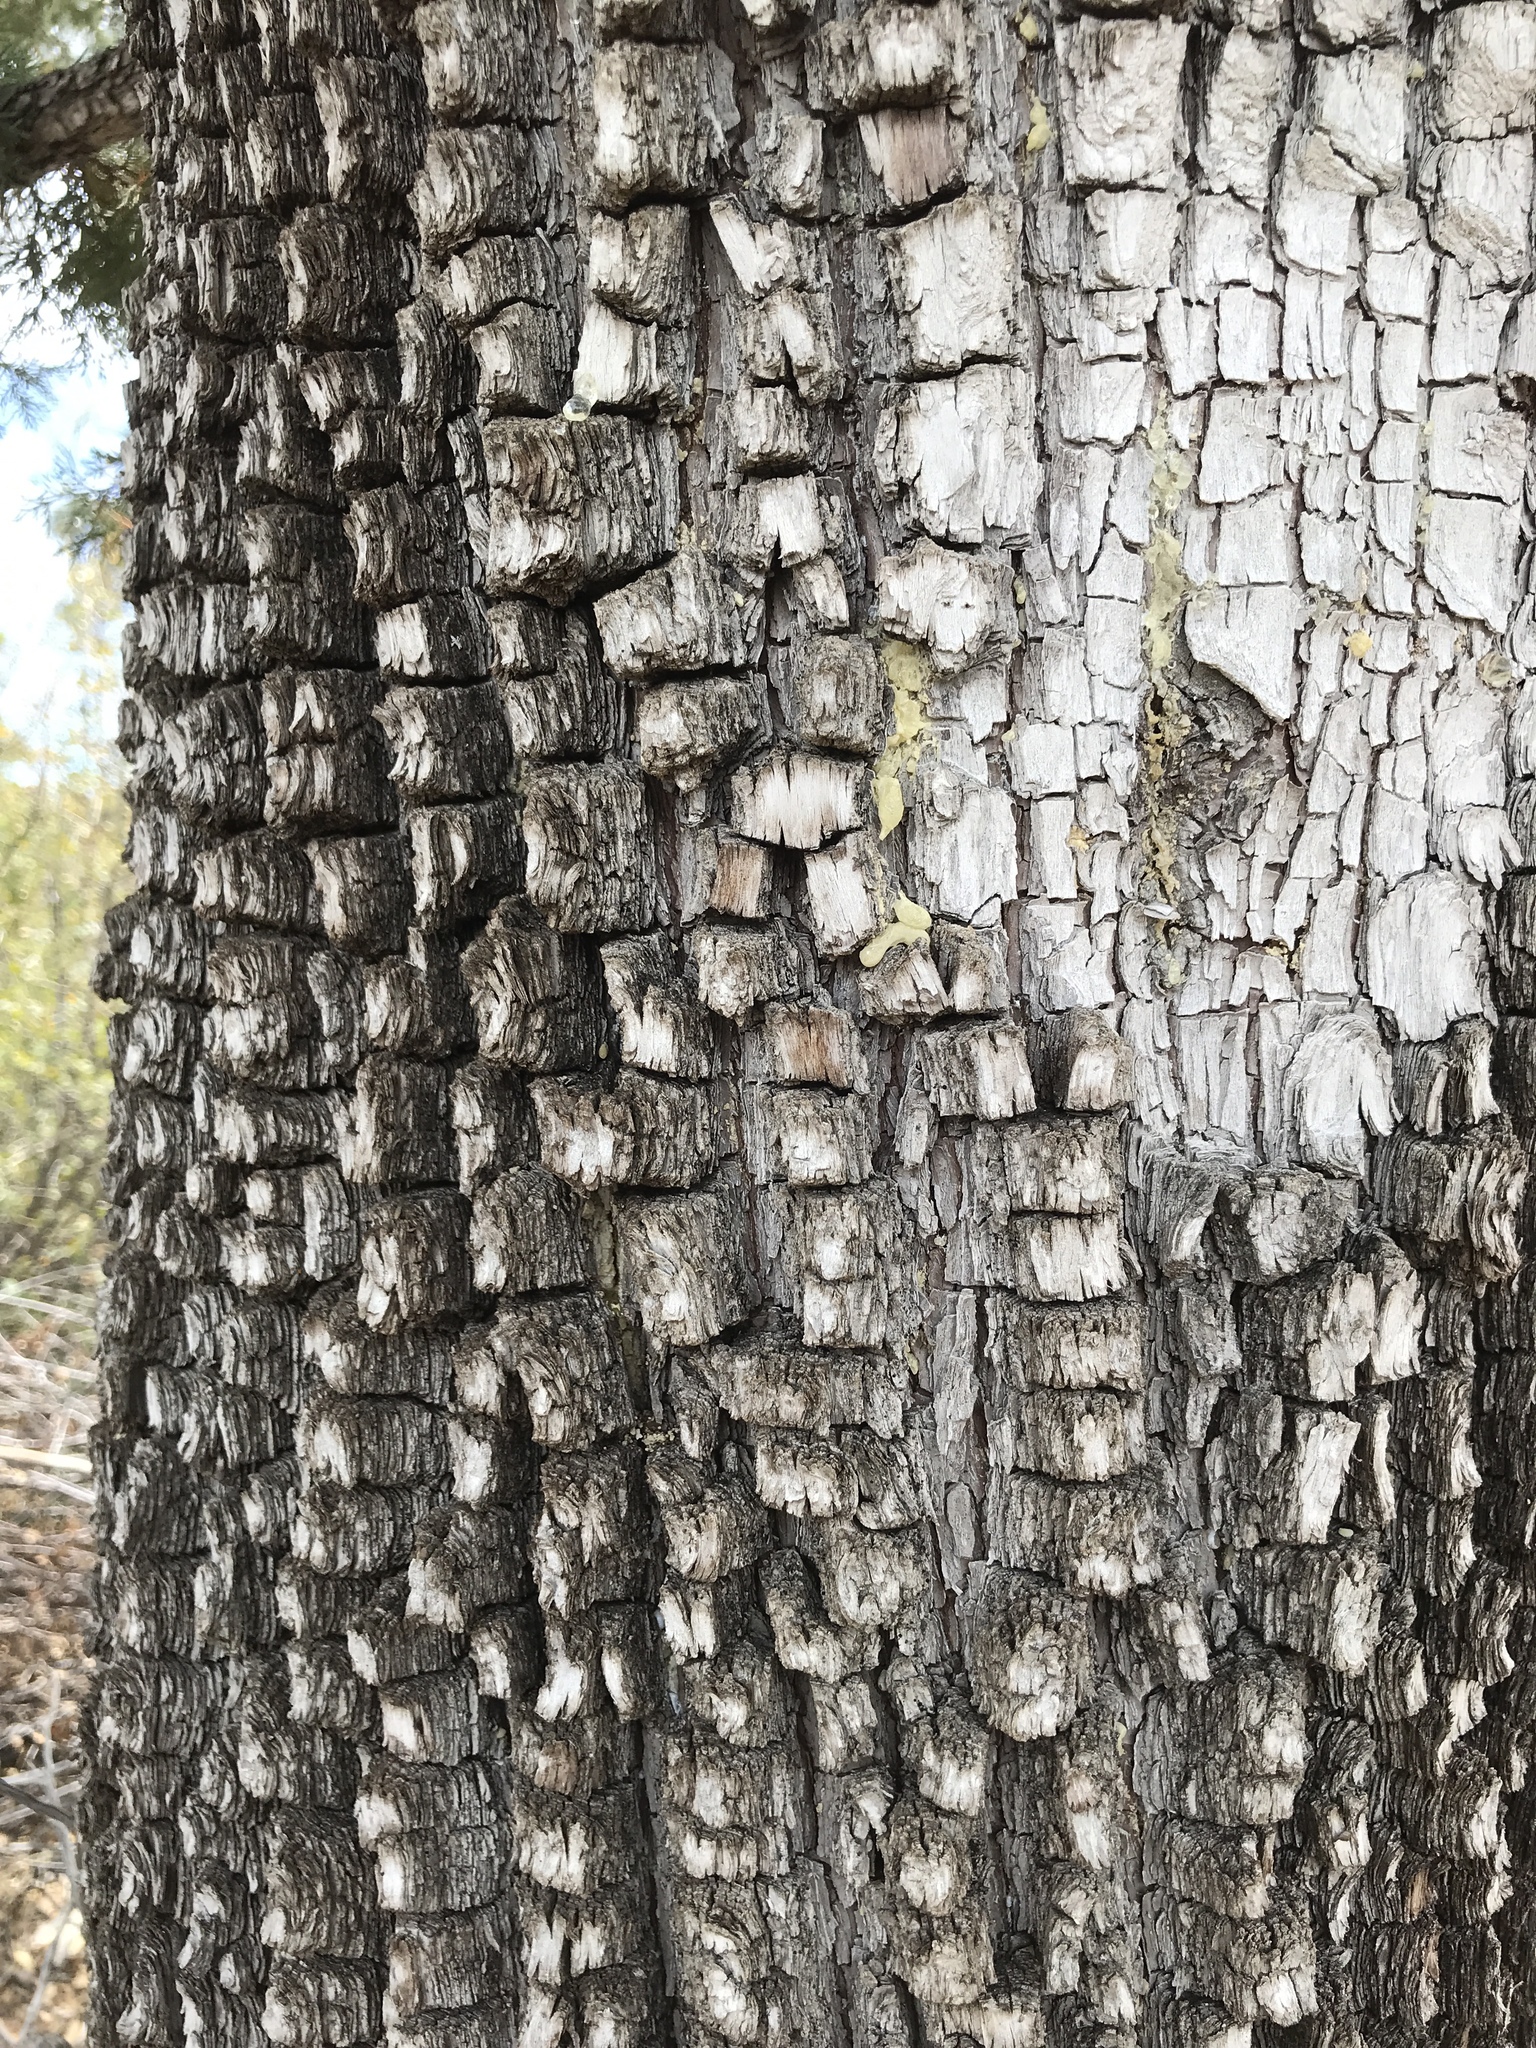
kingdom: Plantae
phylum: Tracheophyta
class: Pinopsida
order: Pinales
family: Cupressaceae
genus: Juniperus
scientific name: Juniperus deppeana
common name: Alligator juniper
